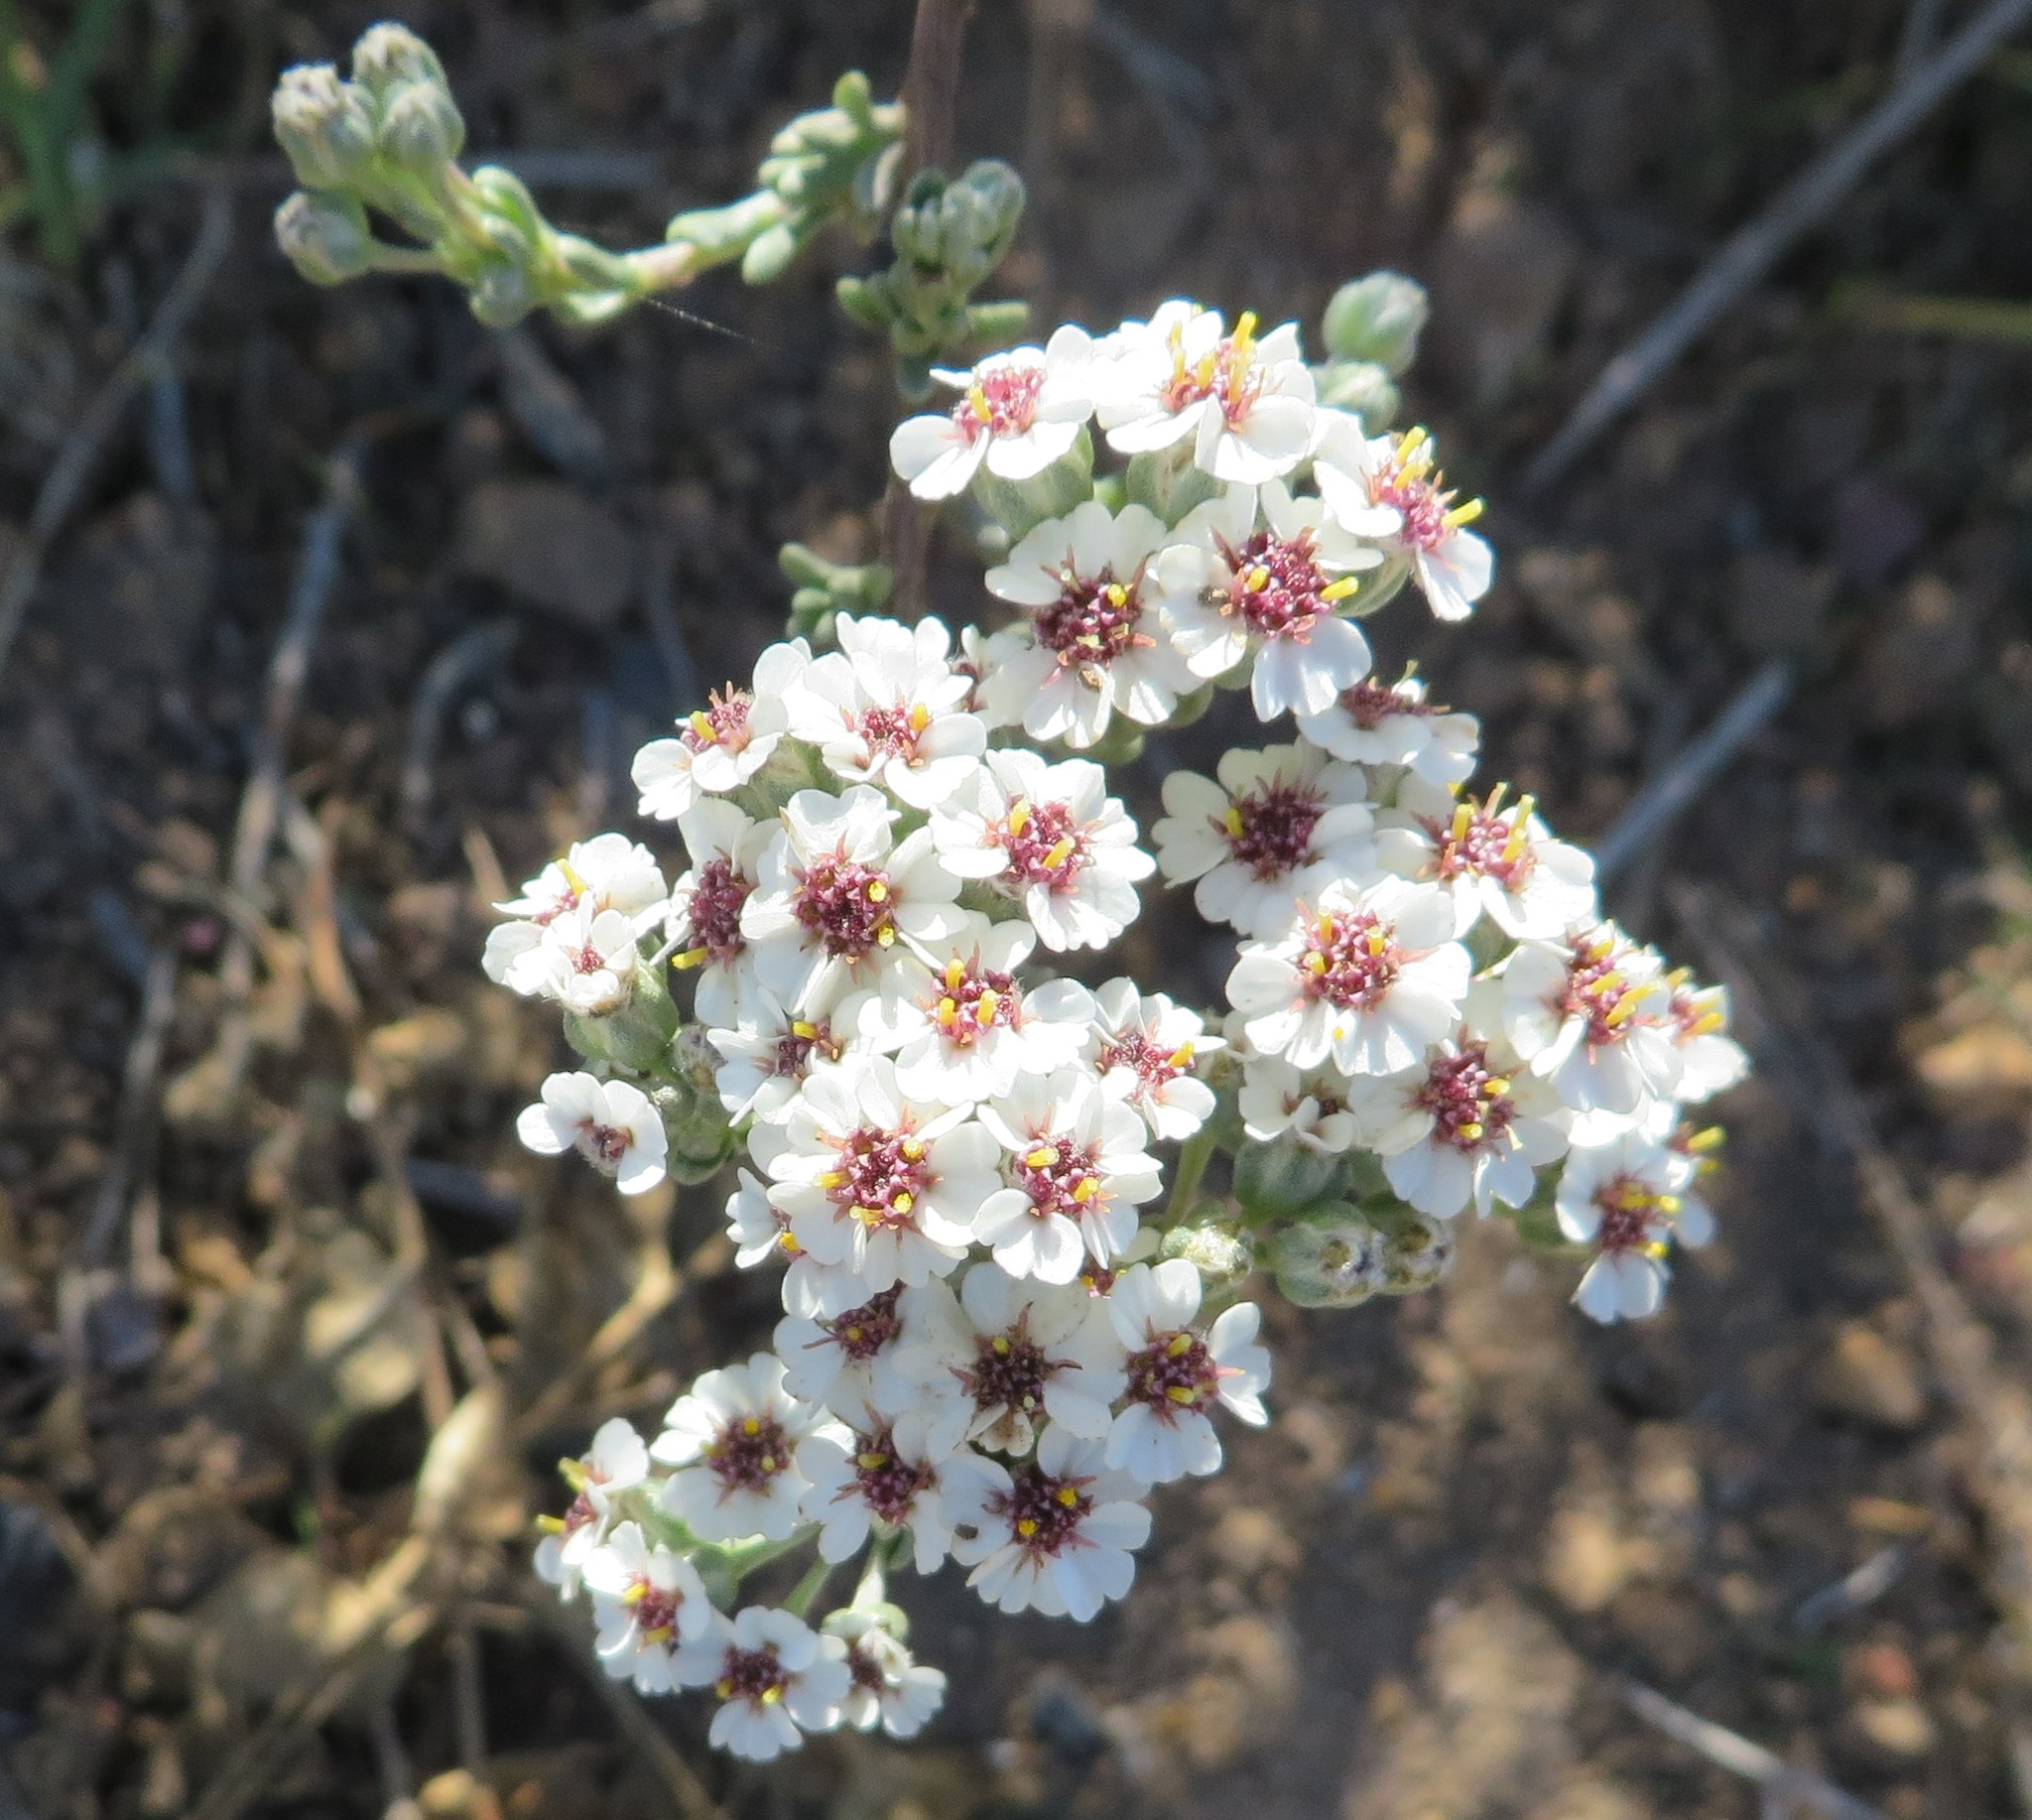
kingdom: Plantae
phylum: Tracheophyta
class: Magnoliopsida
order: Asterales
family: Asteraceae
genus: Eriocephalus
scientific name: Eriocephalus africanus
